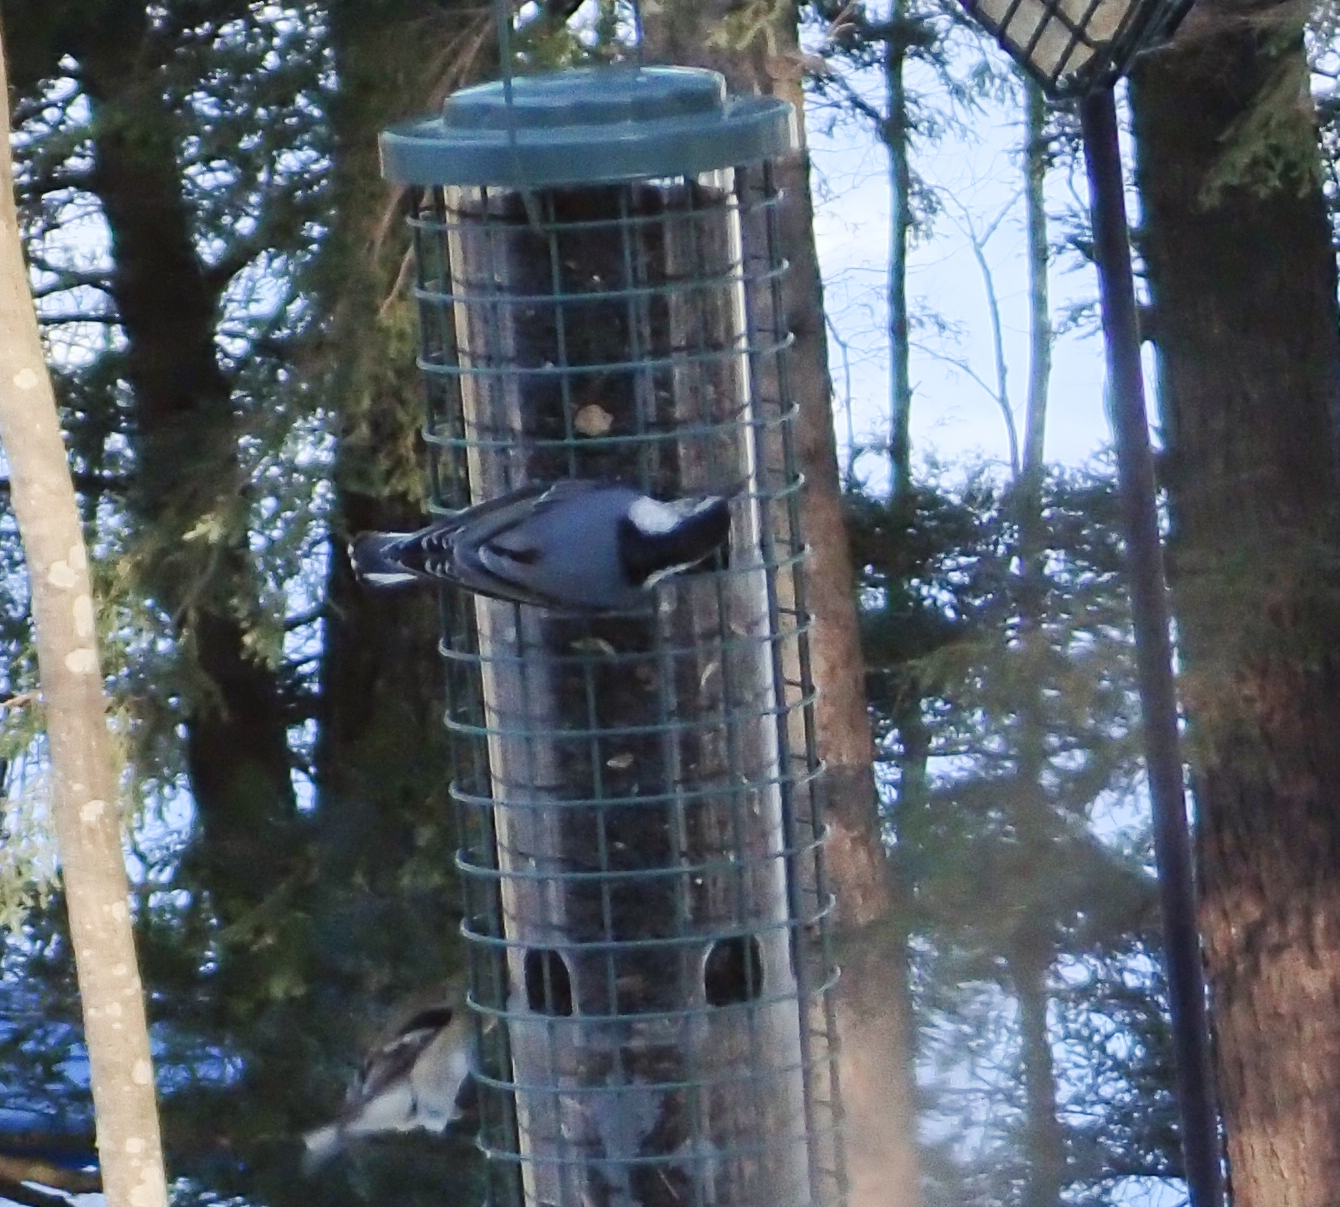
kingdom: Animalia
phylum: Chordata
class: Aves
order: Passeriformes
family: Sittidae
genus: Sitta
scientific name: Sitta carolinensis
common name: White-breasted nuthatch
